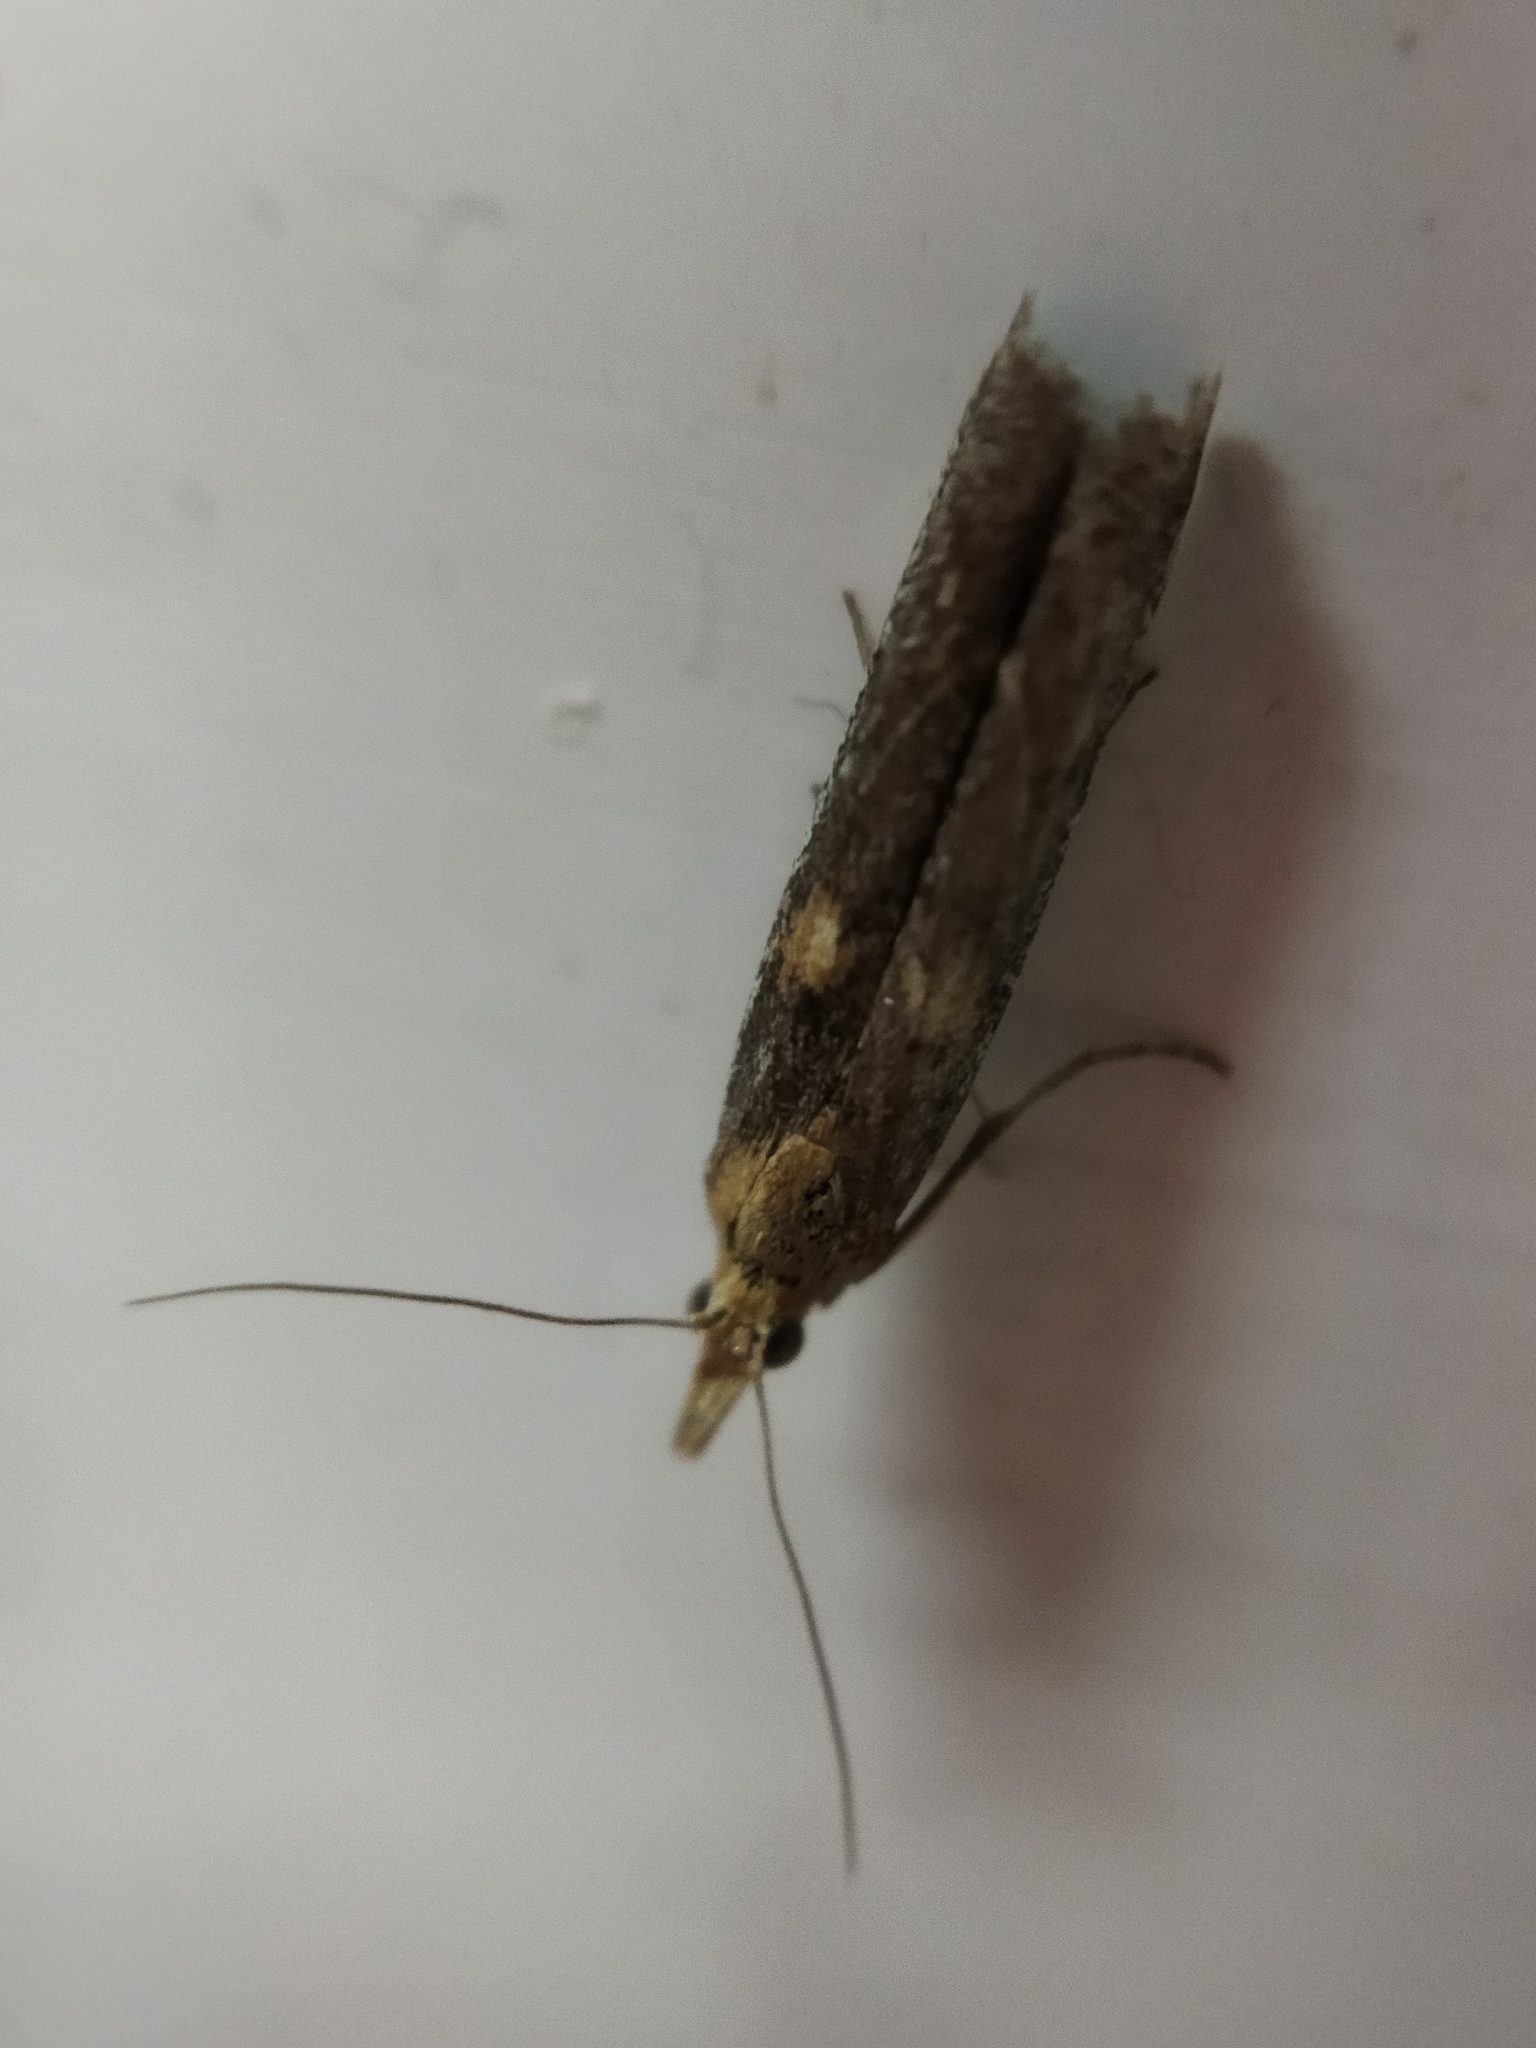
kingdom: Animalia
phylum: Arthropoda
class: Insecta
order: Lepidoptera
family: Pyralidae
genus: Etiella
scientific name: Etiella zinckenella
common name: Gold-banded etiella moth
